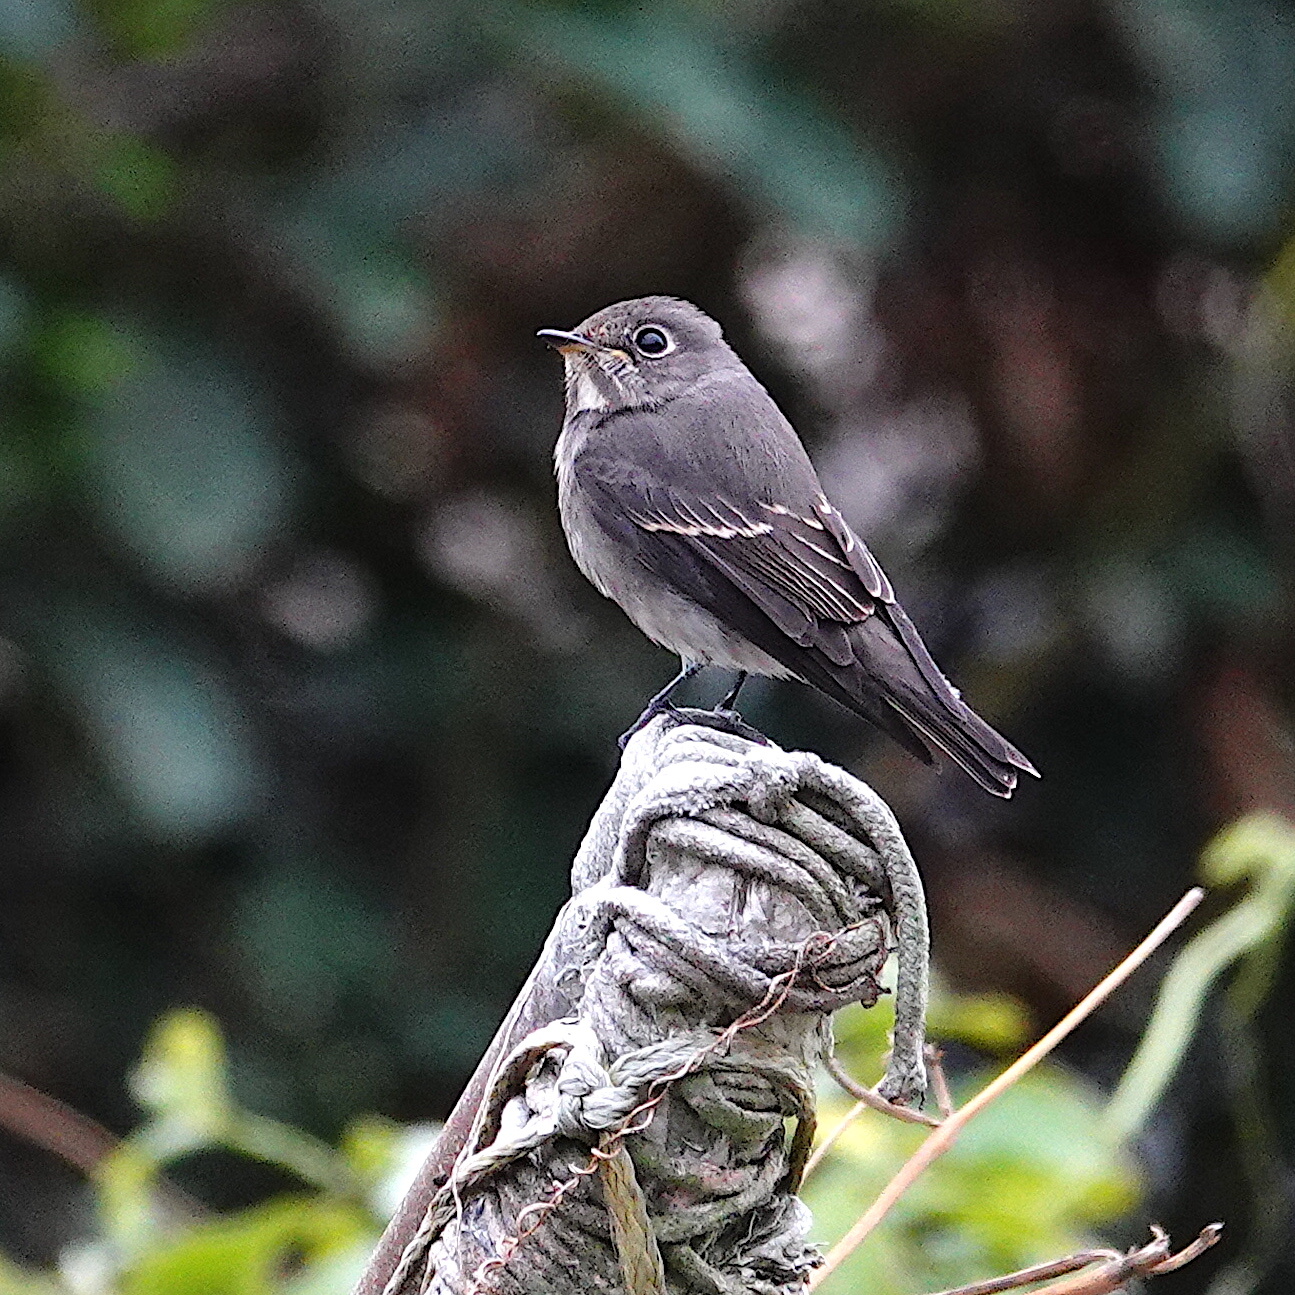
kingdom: Animalia
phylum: Chordata
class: Aves
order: Passeriformes
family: Muscicapidae
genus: Muscicapa
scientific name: Muscicapa sibirica
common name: Dark-sided flycatcher
